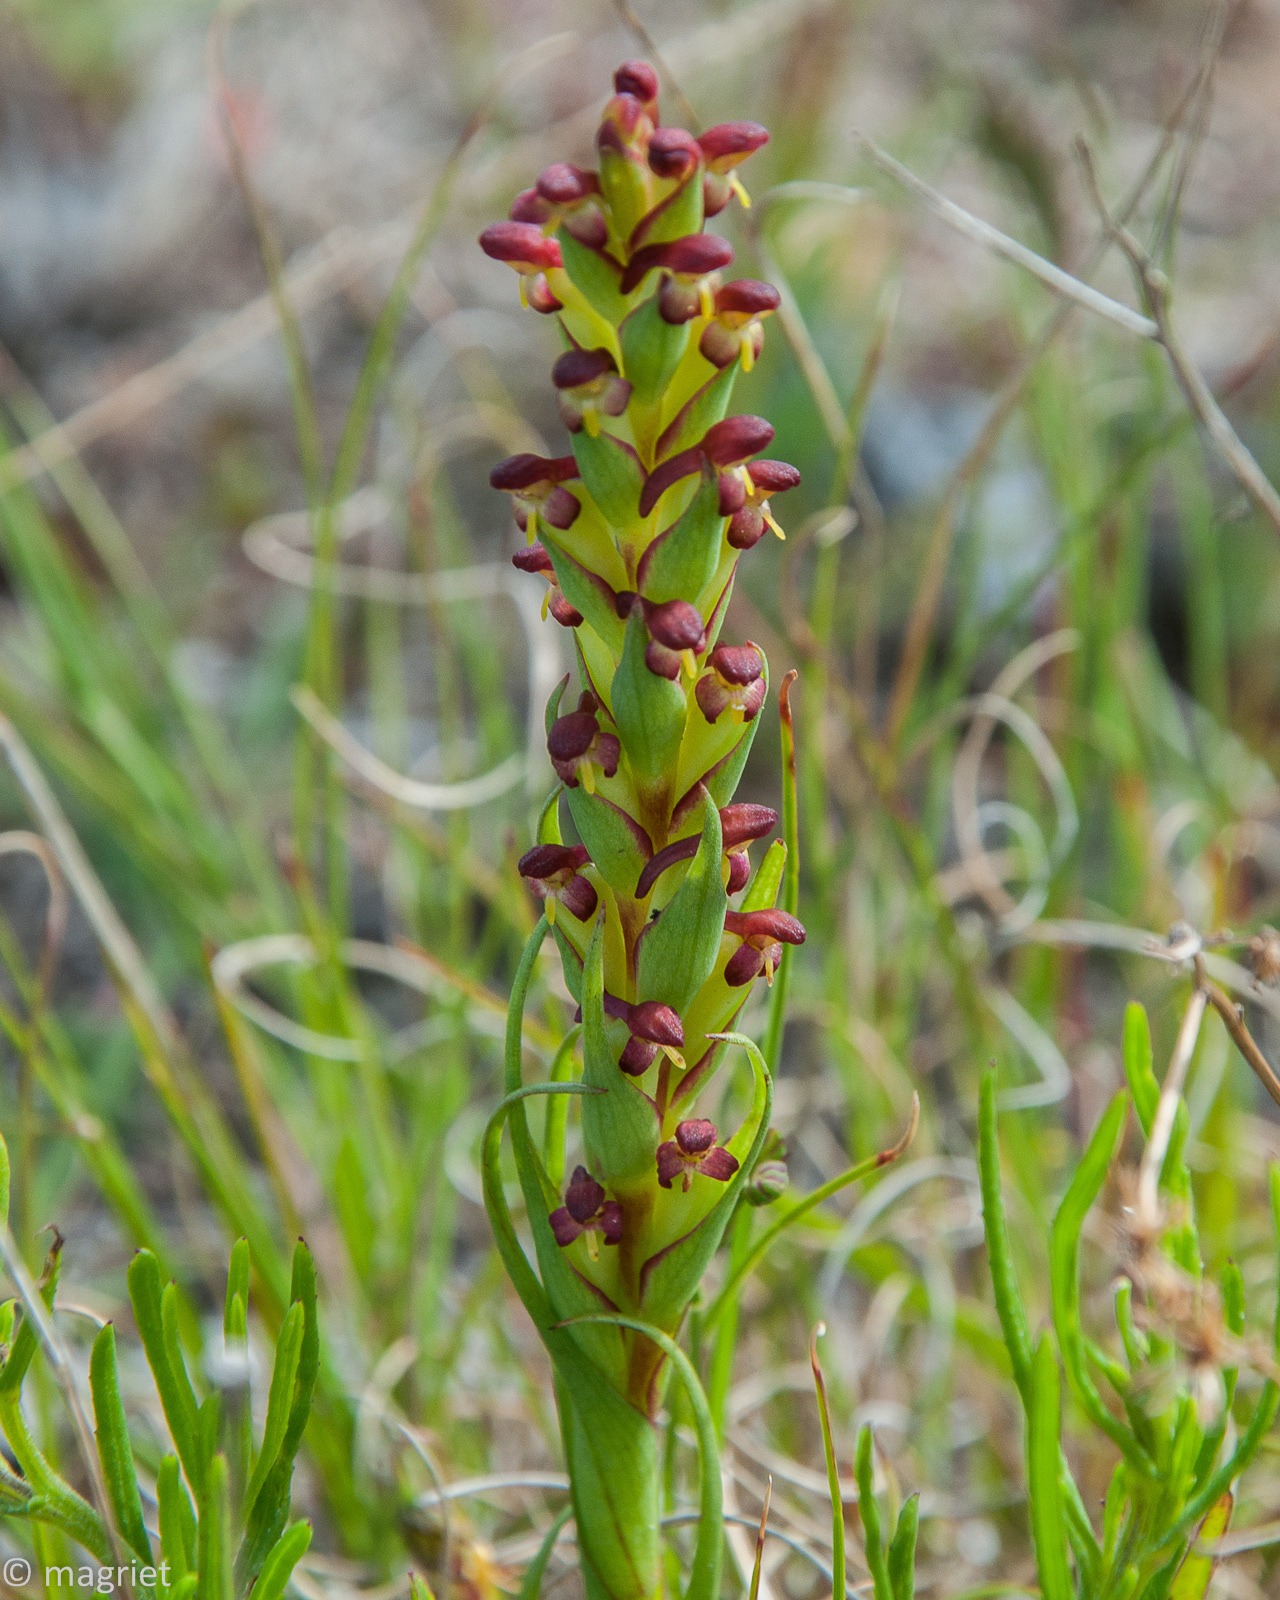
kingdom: Plantae
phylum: Tracheophyta
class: Liliopsida
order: Asparagales
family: Orchidaceae
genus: Disa
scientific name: Disa bracteata
